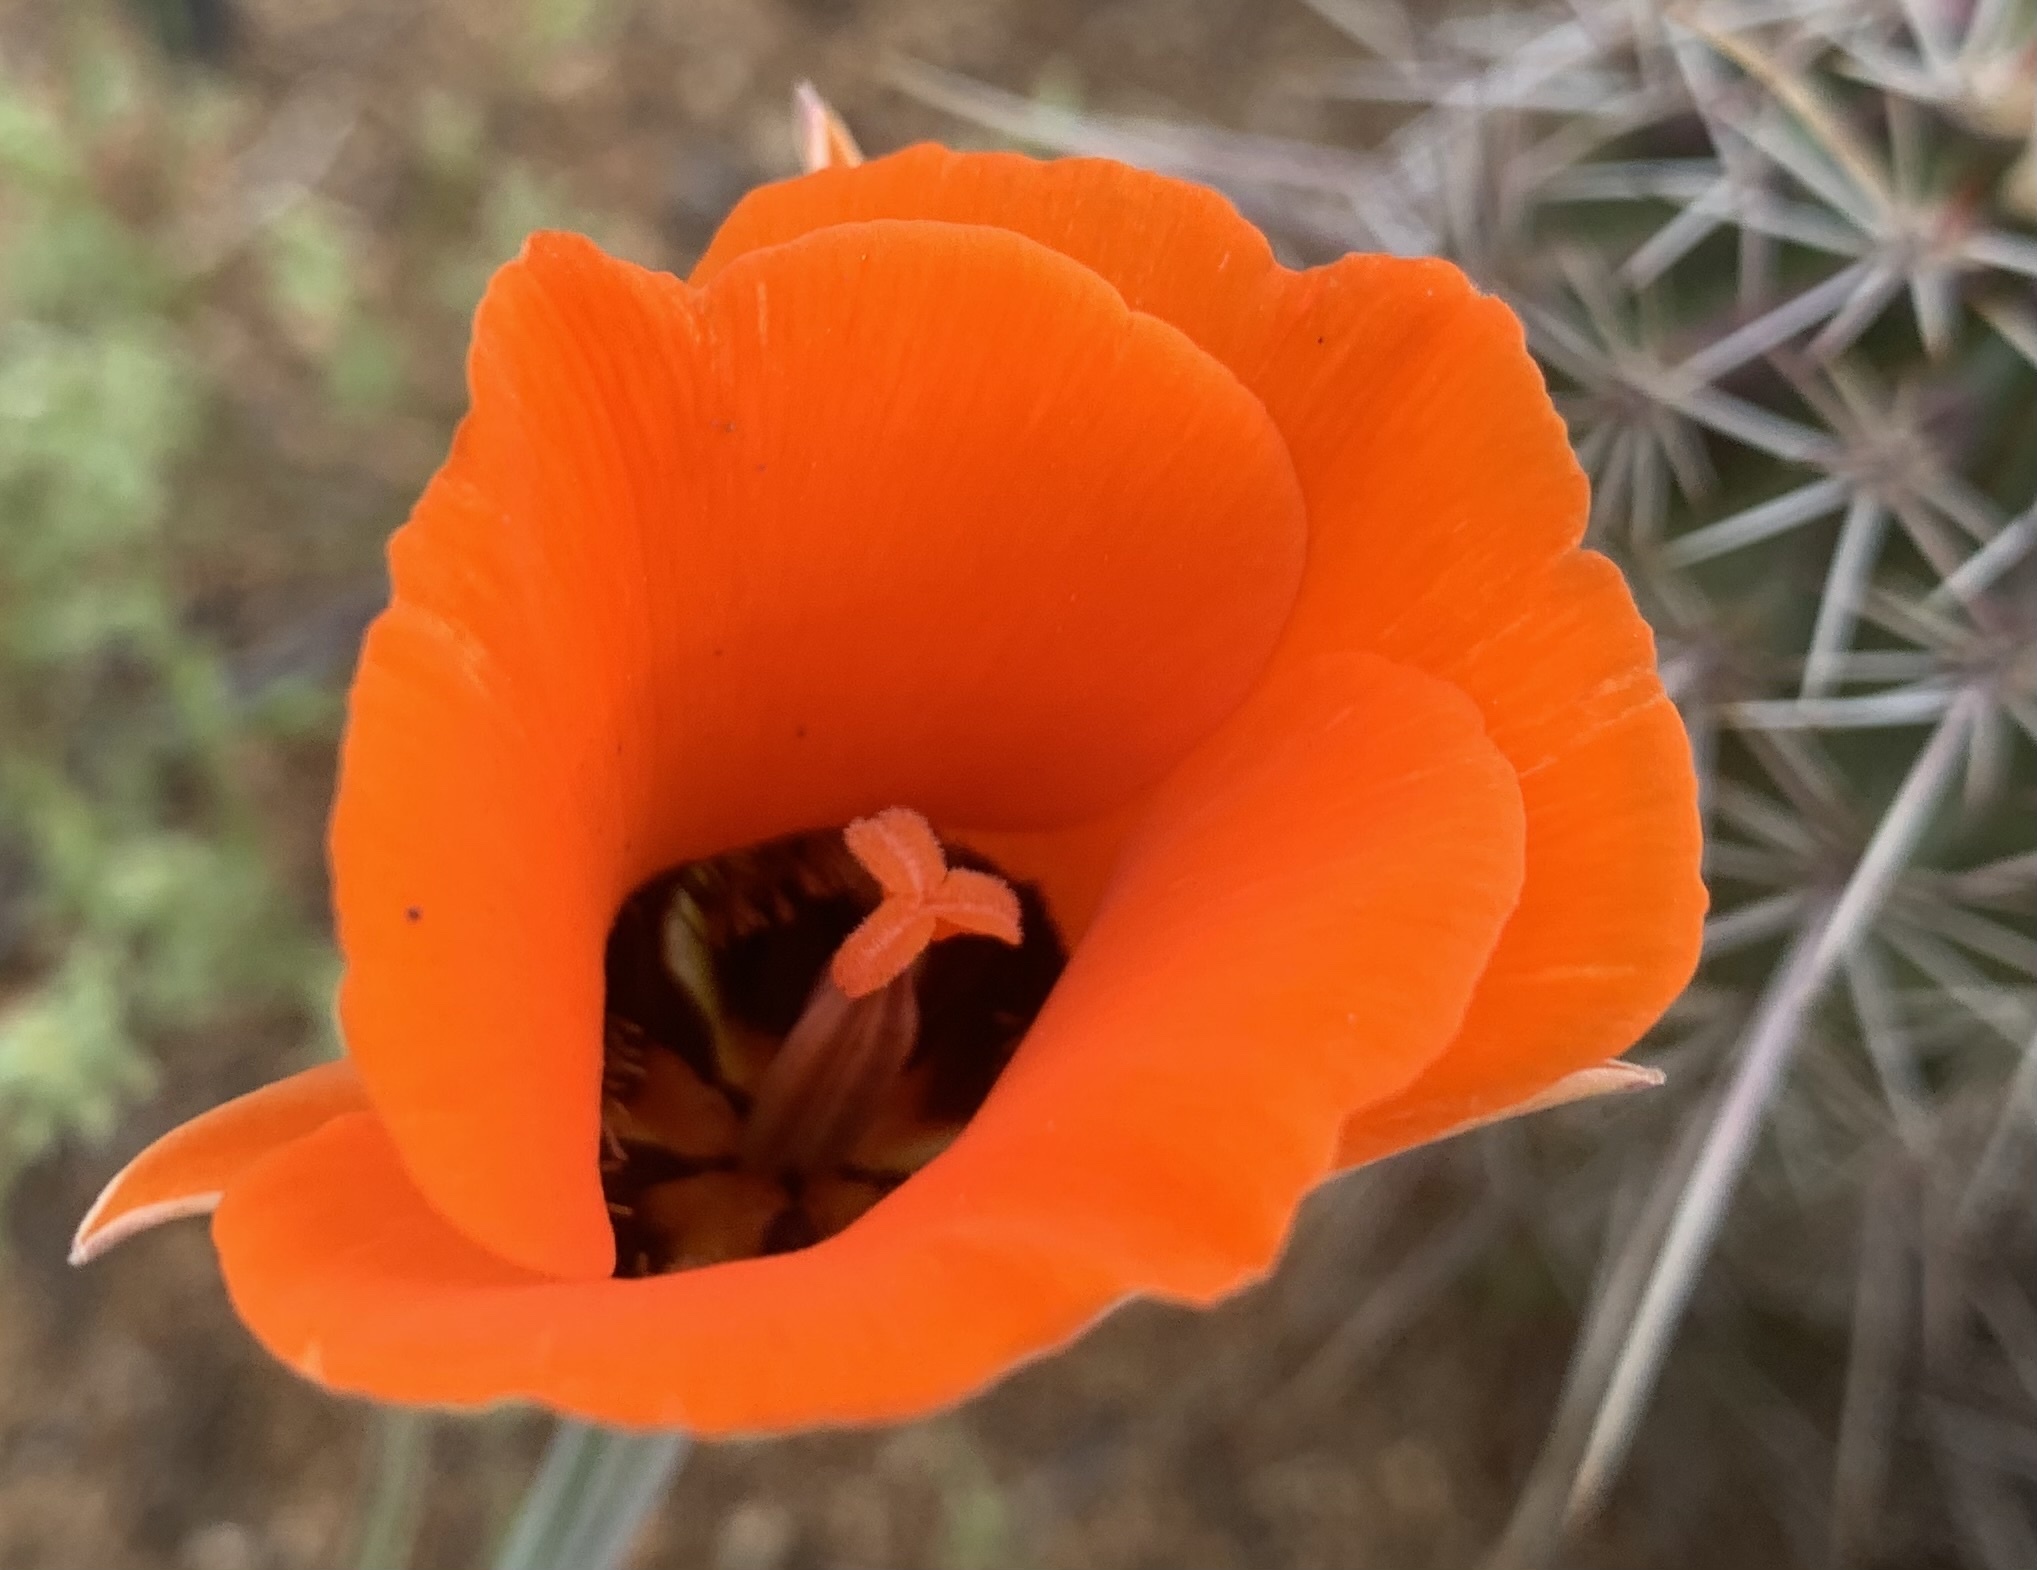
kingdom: Plantae
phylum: Tracheophyta
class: Liliopsida
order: Liliales
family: Liliaceae
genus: Calochortus
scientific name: Calochortus kennedyi
